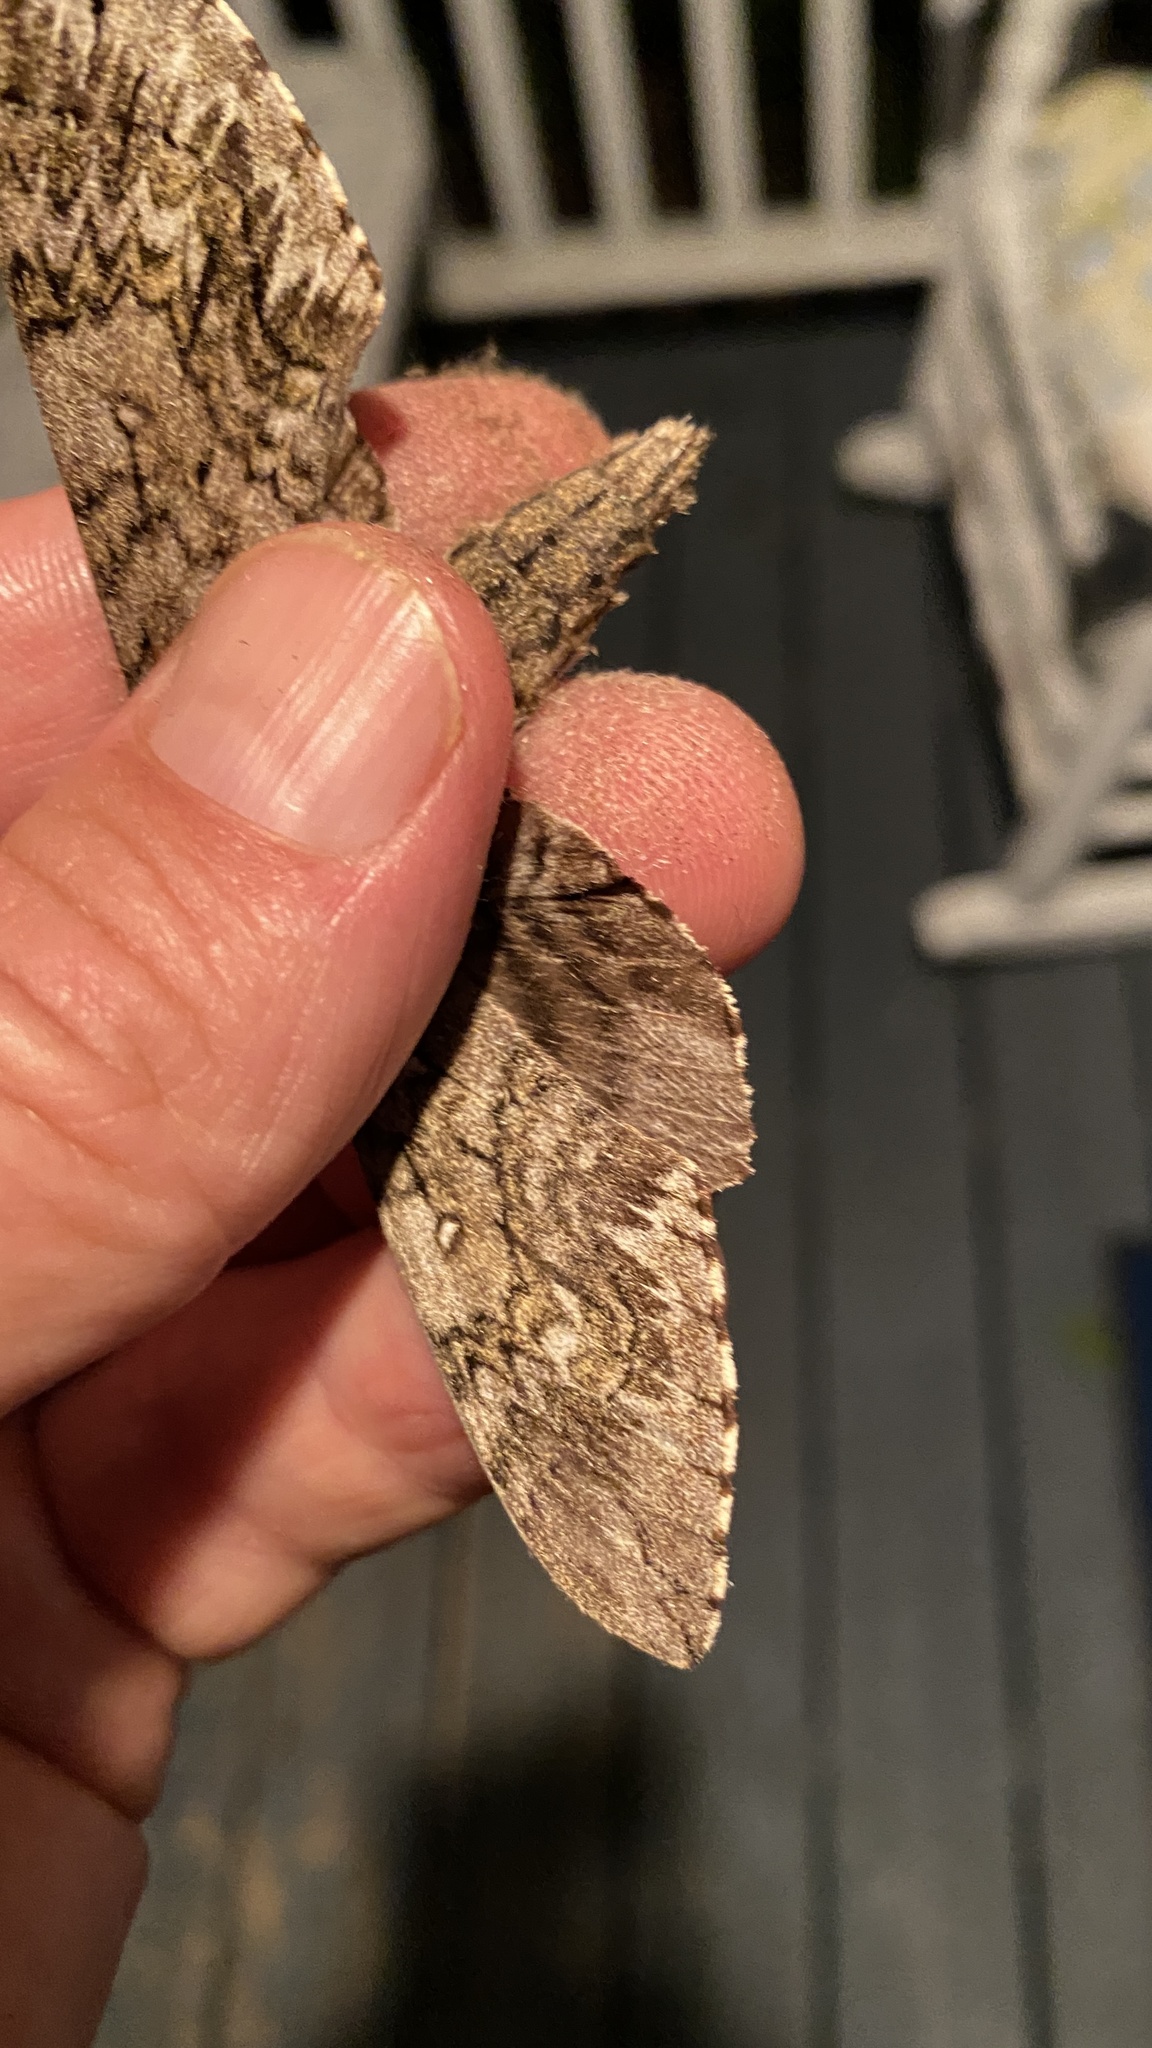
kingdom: Animalia
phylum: Arthropoda
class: Insecta
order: Lepidoptera
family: Sphingidae
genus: Ceratomia
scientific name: Ceratomia undulosa
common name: Waved sphinx
